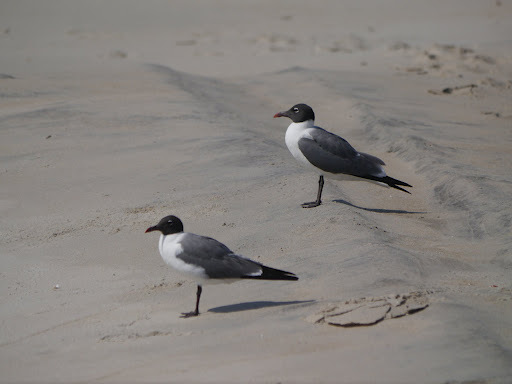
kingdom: Animalia
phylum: Chordata
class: Aves
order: Charadriiformes
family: Laridae
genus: Leucophaeus
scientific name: Leucophaeus atricilla
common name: Laughing gull
